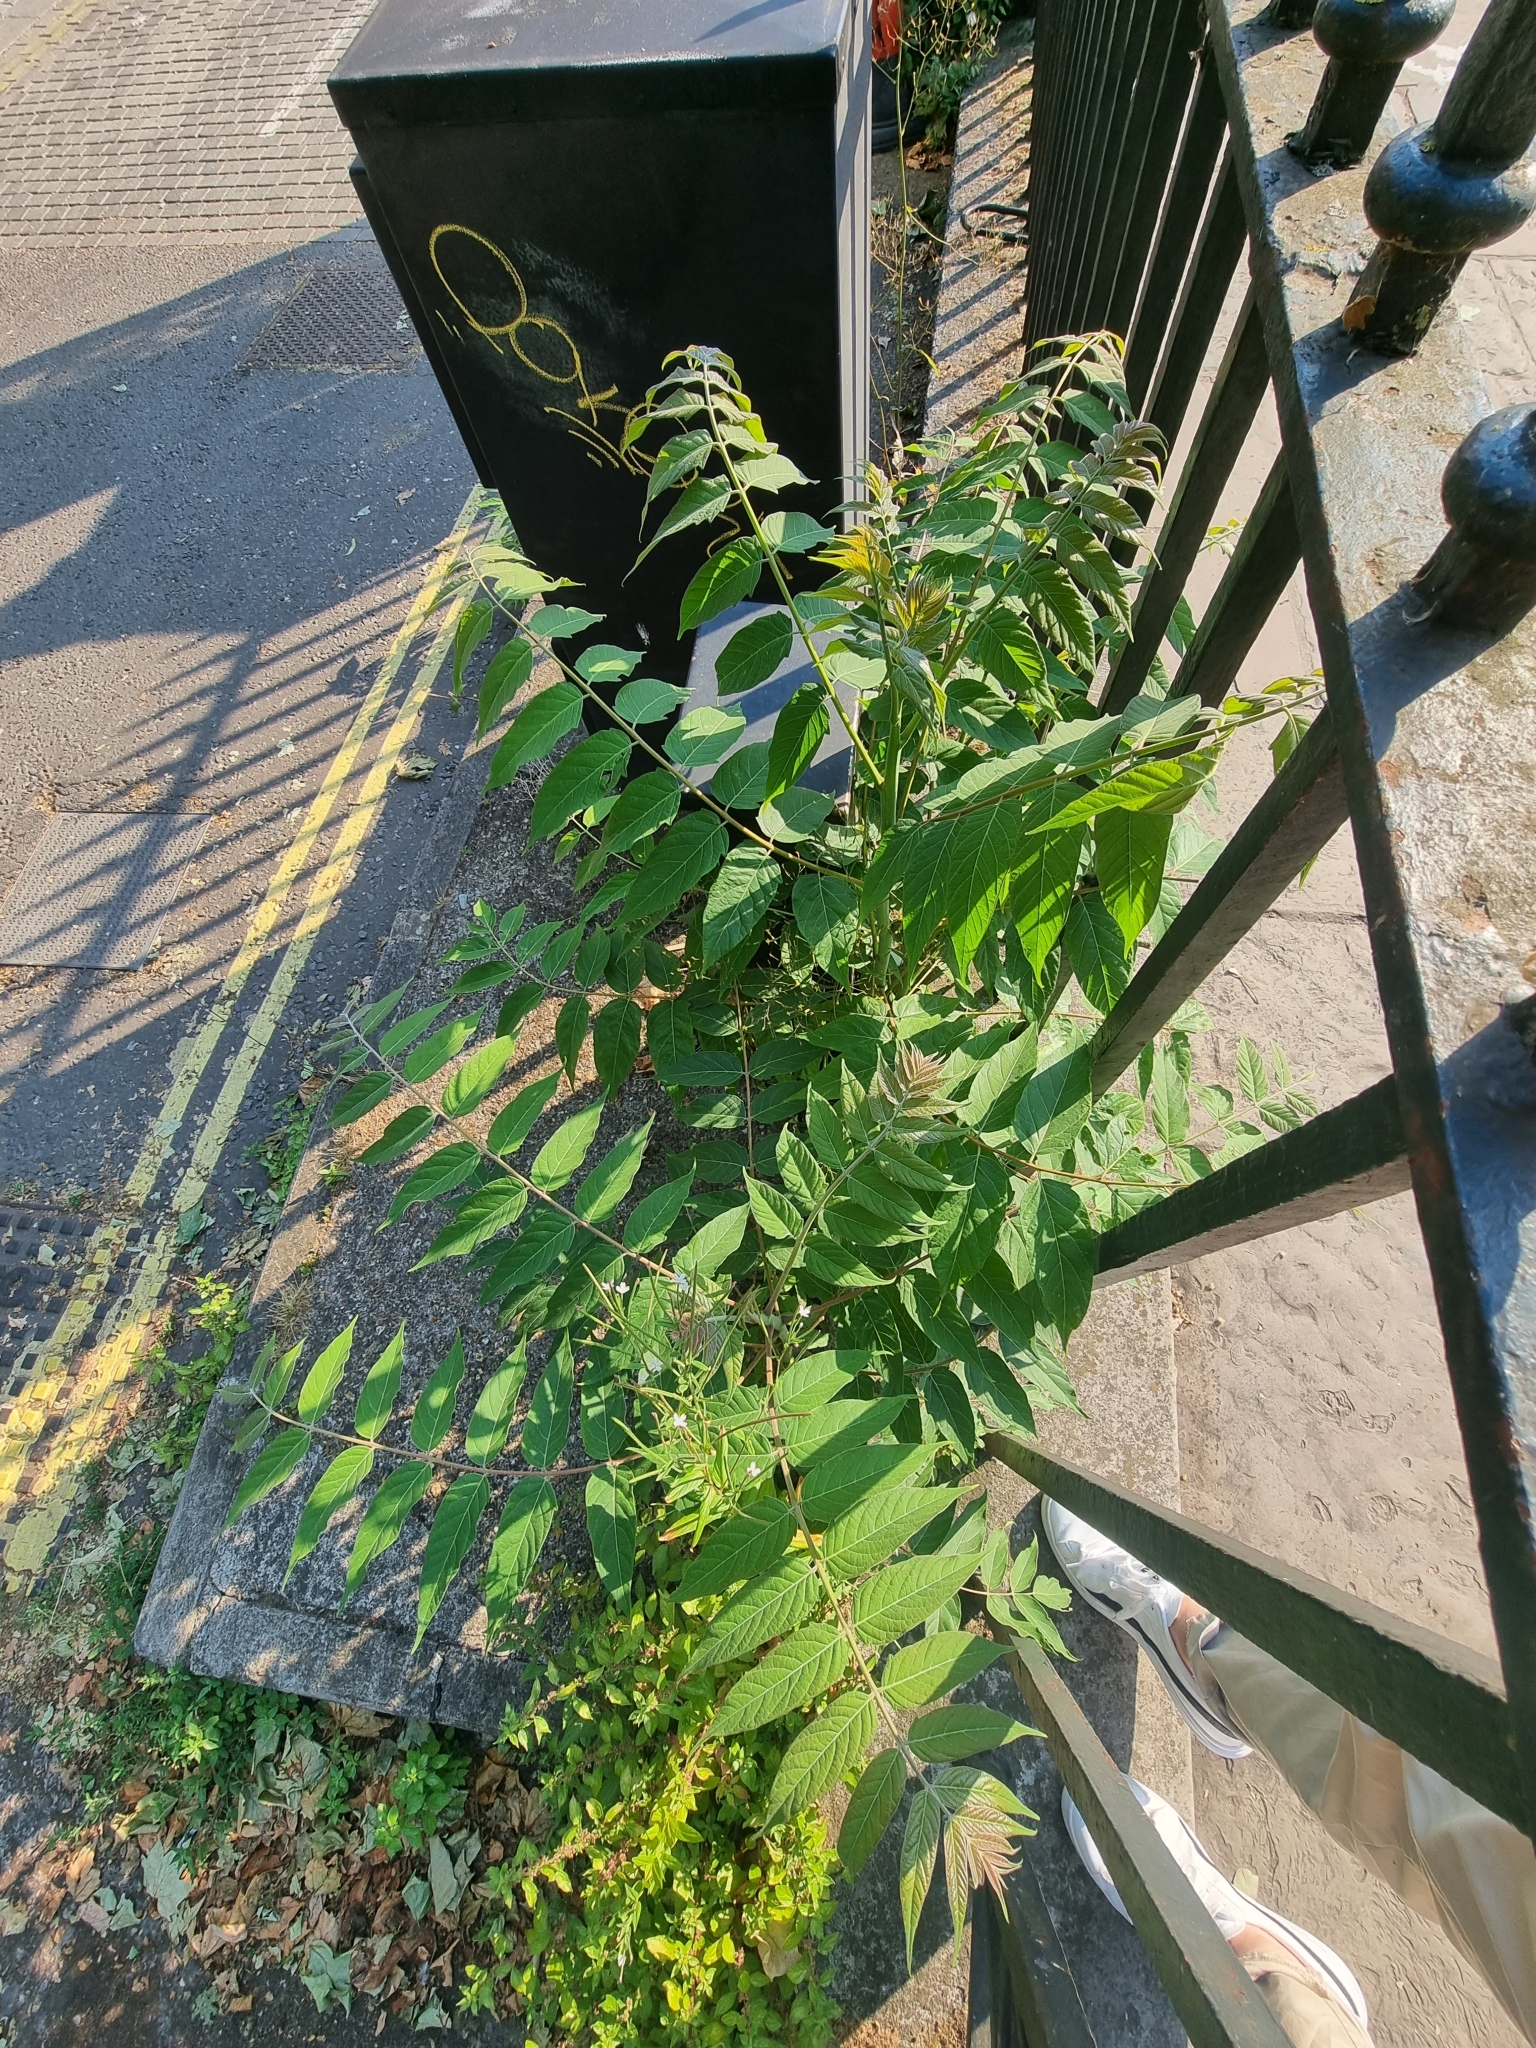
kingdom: Plantae
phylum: Tracheophyta
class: Magnoliopsida
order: Sapindales
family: Simaroubaceae
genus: Ailanthus
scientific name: Ailanthus altissima
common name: Tree-of-heaven
